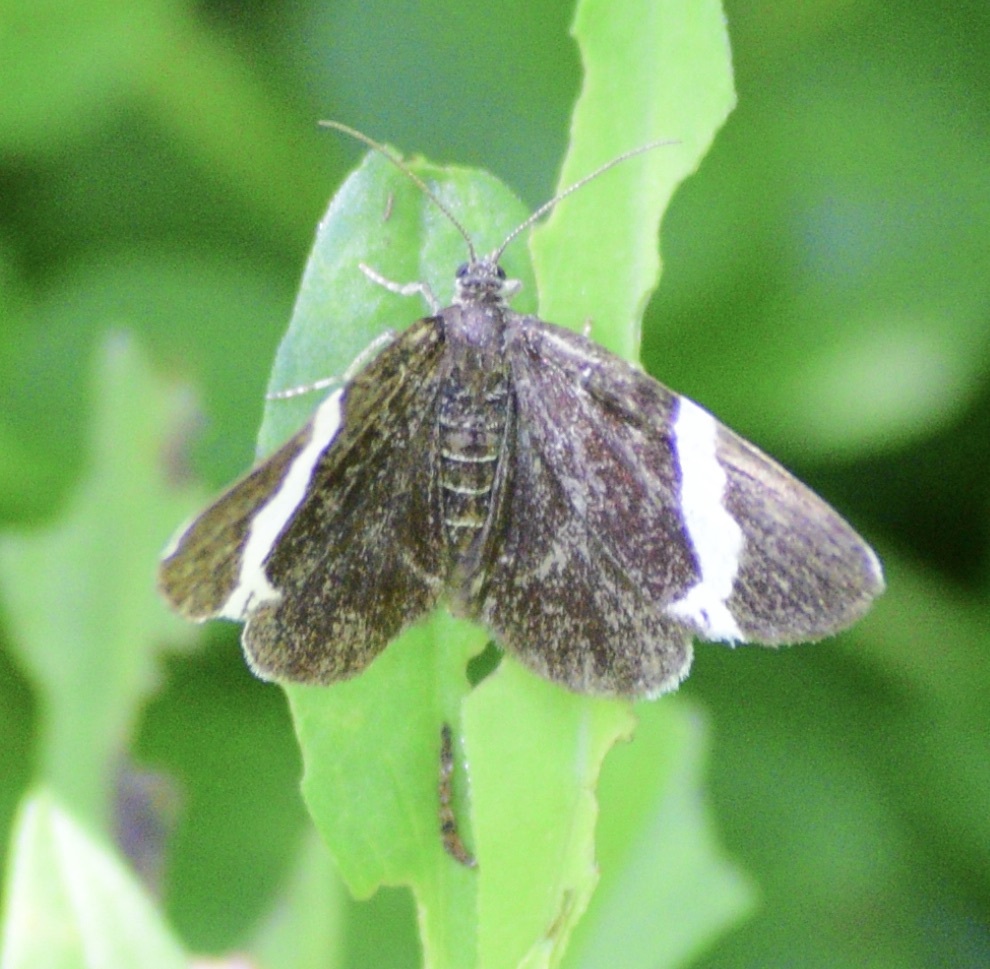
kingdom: Animalia
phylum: Arthropoda
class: Insecta
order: Lepidoptera
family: Geometridae
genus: Trichodezia
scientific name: Trichodezia albovittata
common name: White striped black
